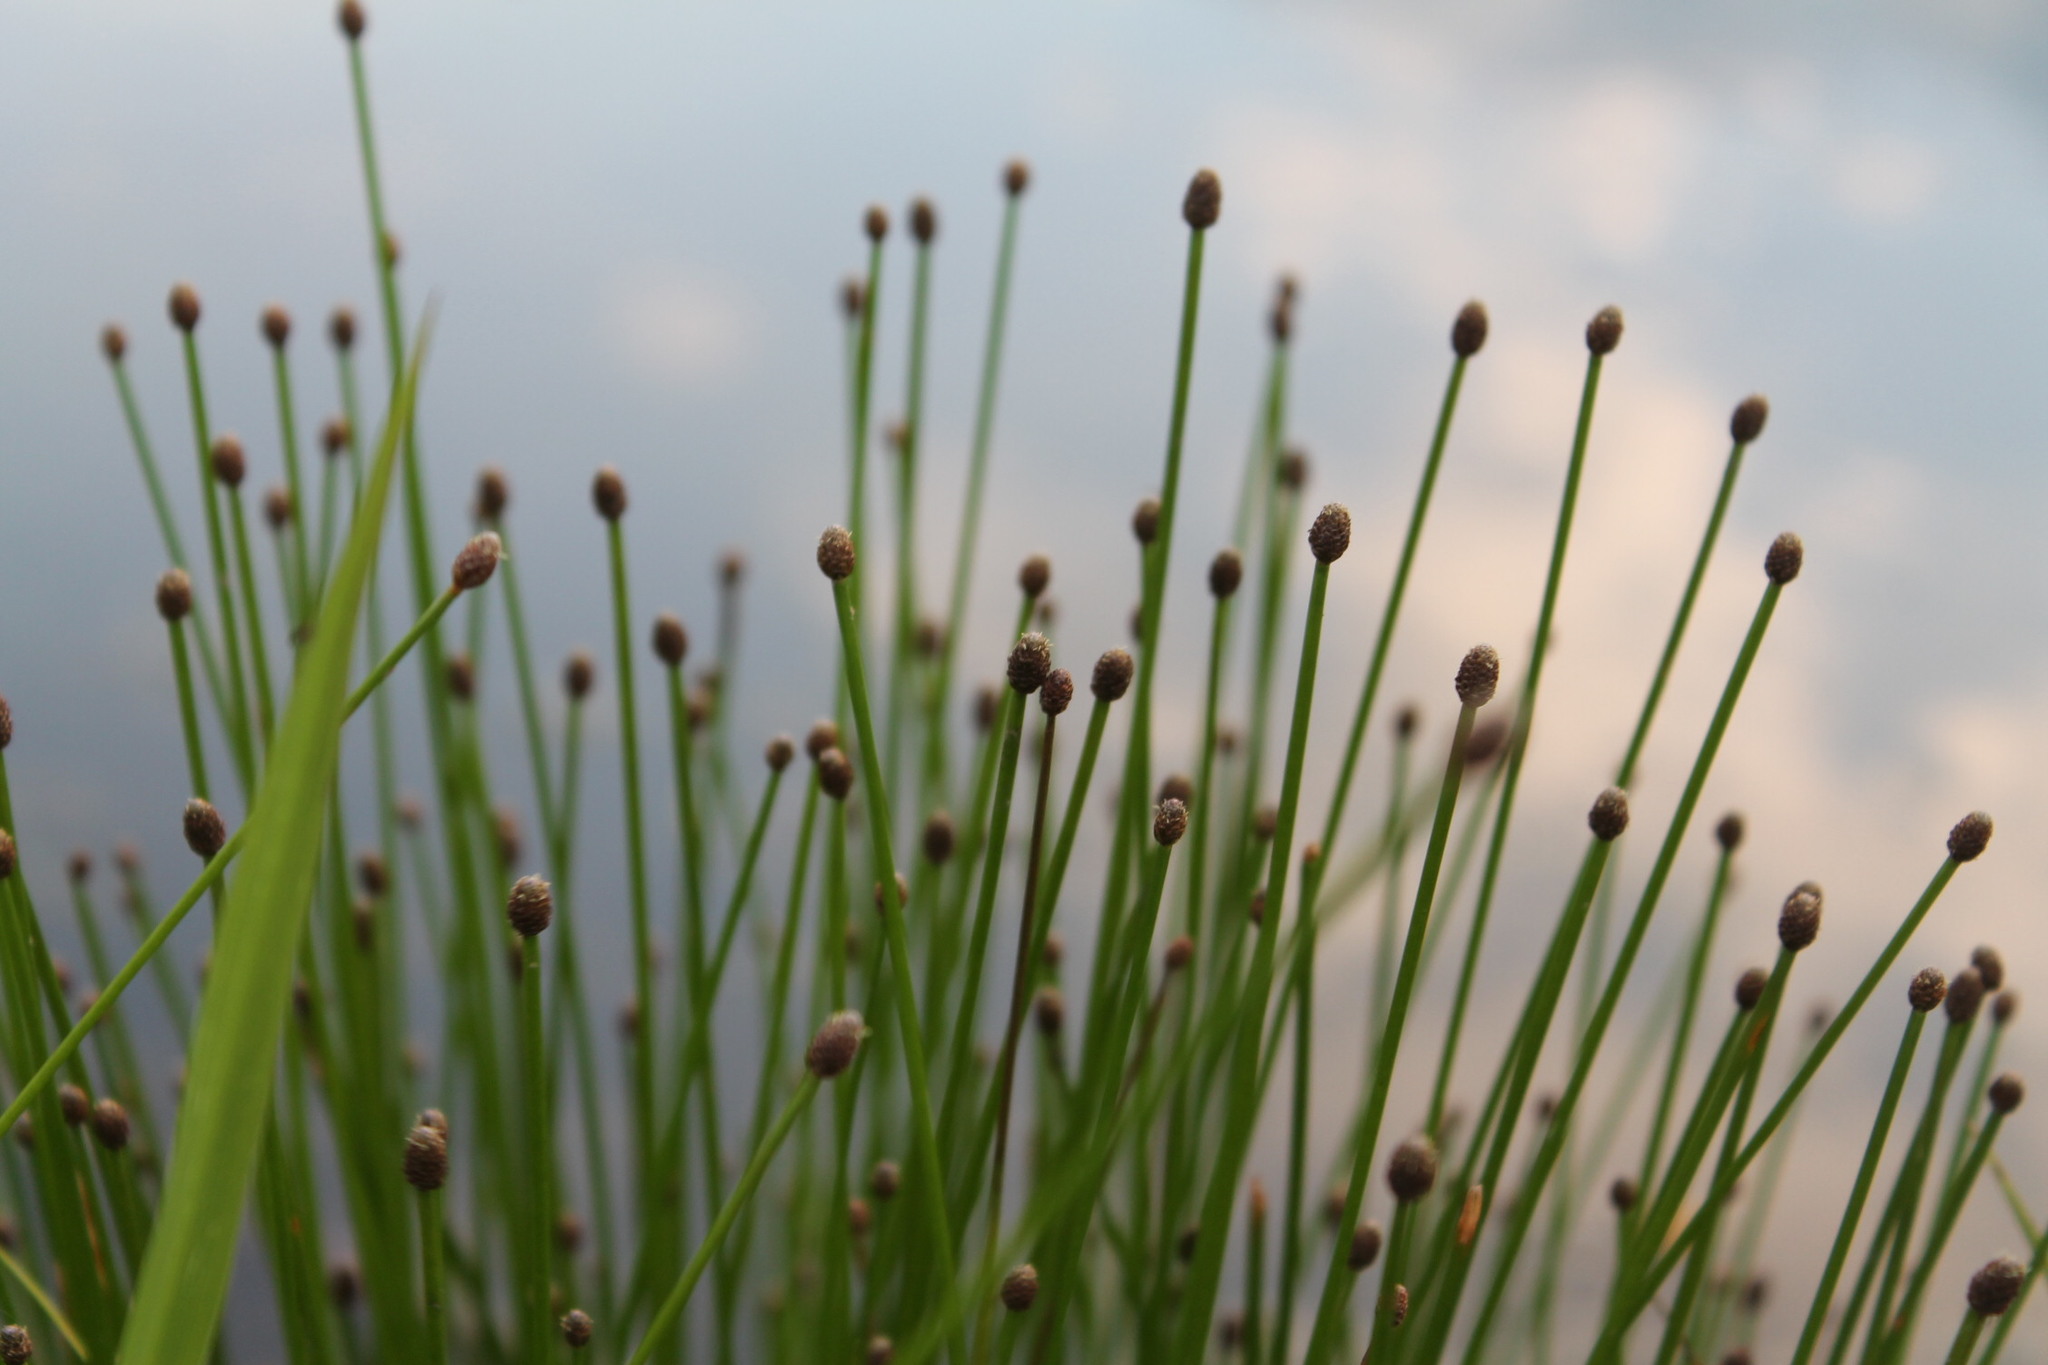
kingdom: Plantae
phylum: Tracheophyta
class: Liliopsida
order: Poales
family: Cyperaceae
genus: Eleocharis
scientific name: Eleocharis obtusa
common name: Blunt spikerush
